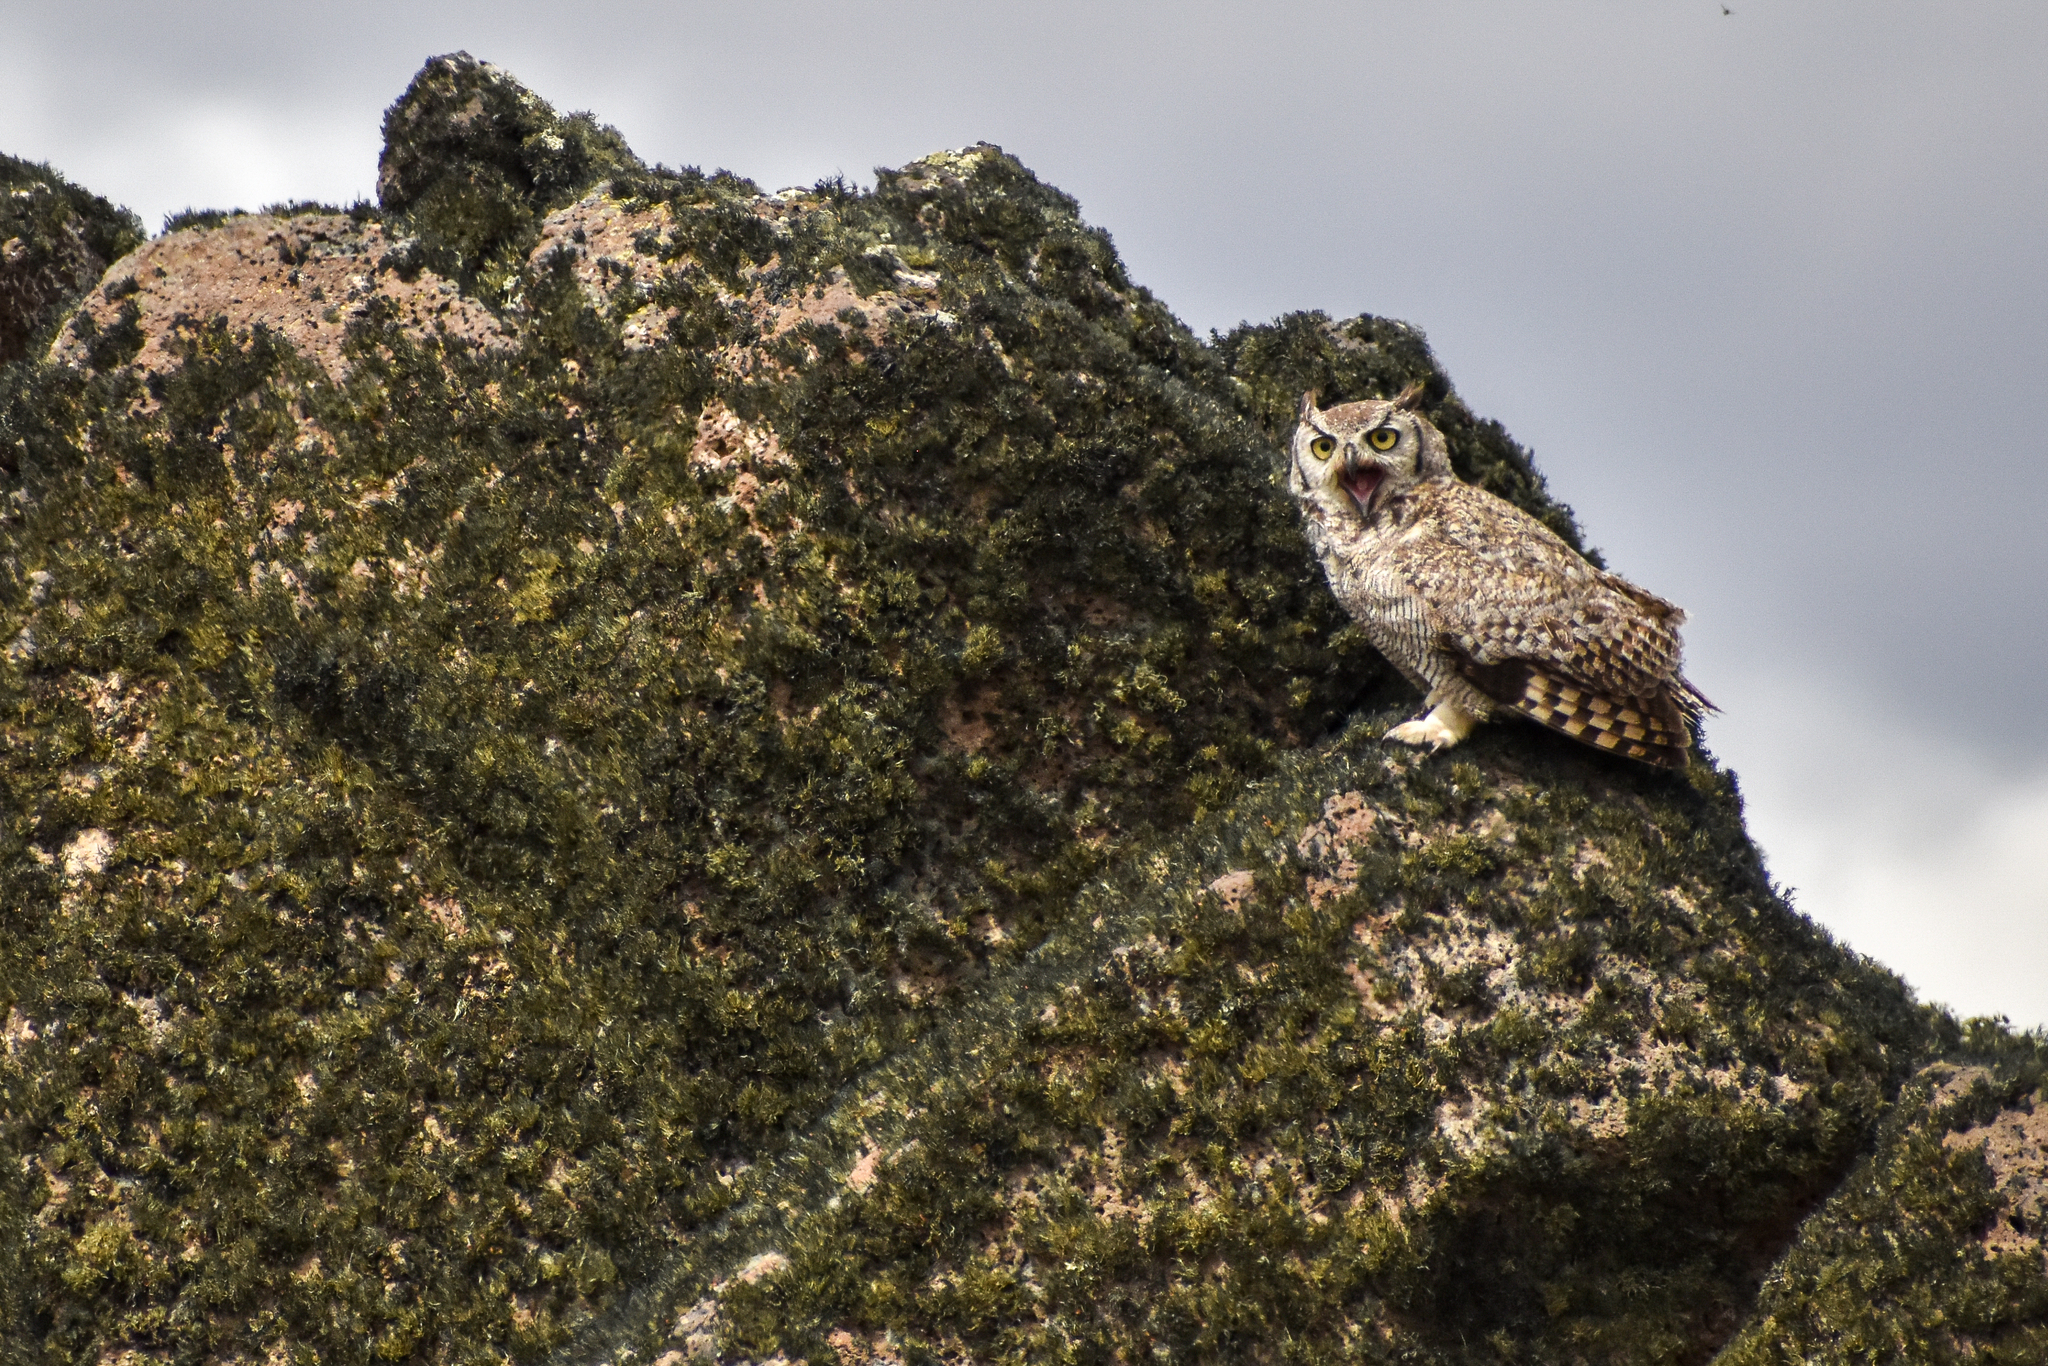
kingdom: Animalia
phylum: Chordata
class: Aves
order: Strigiformes
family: Strigidae
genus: Bubo
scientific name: Bubo magellanicus
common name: Lesser horned owl
